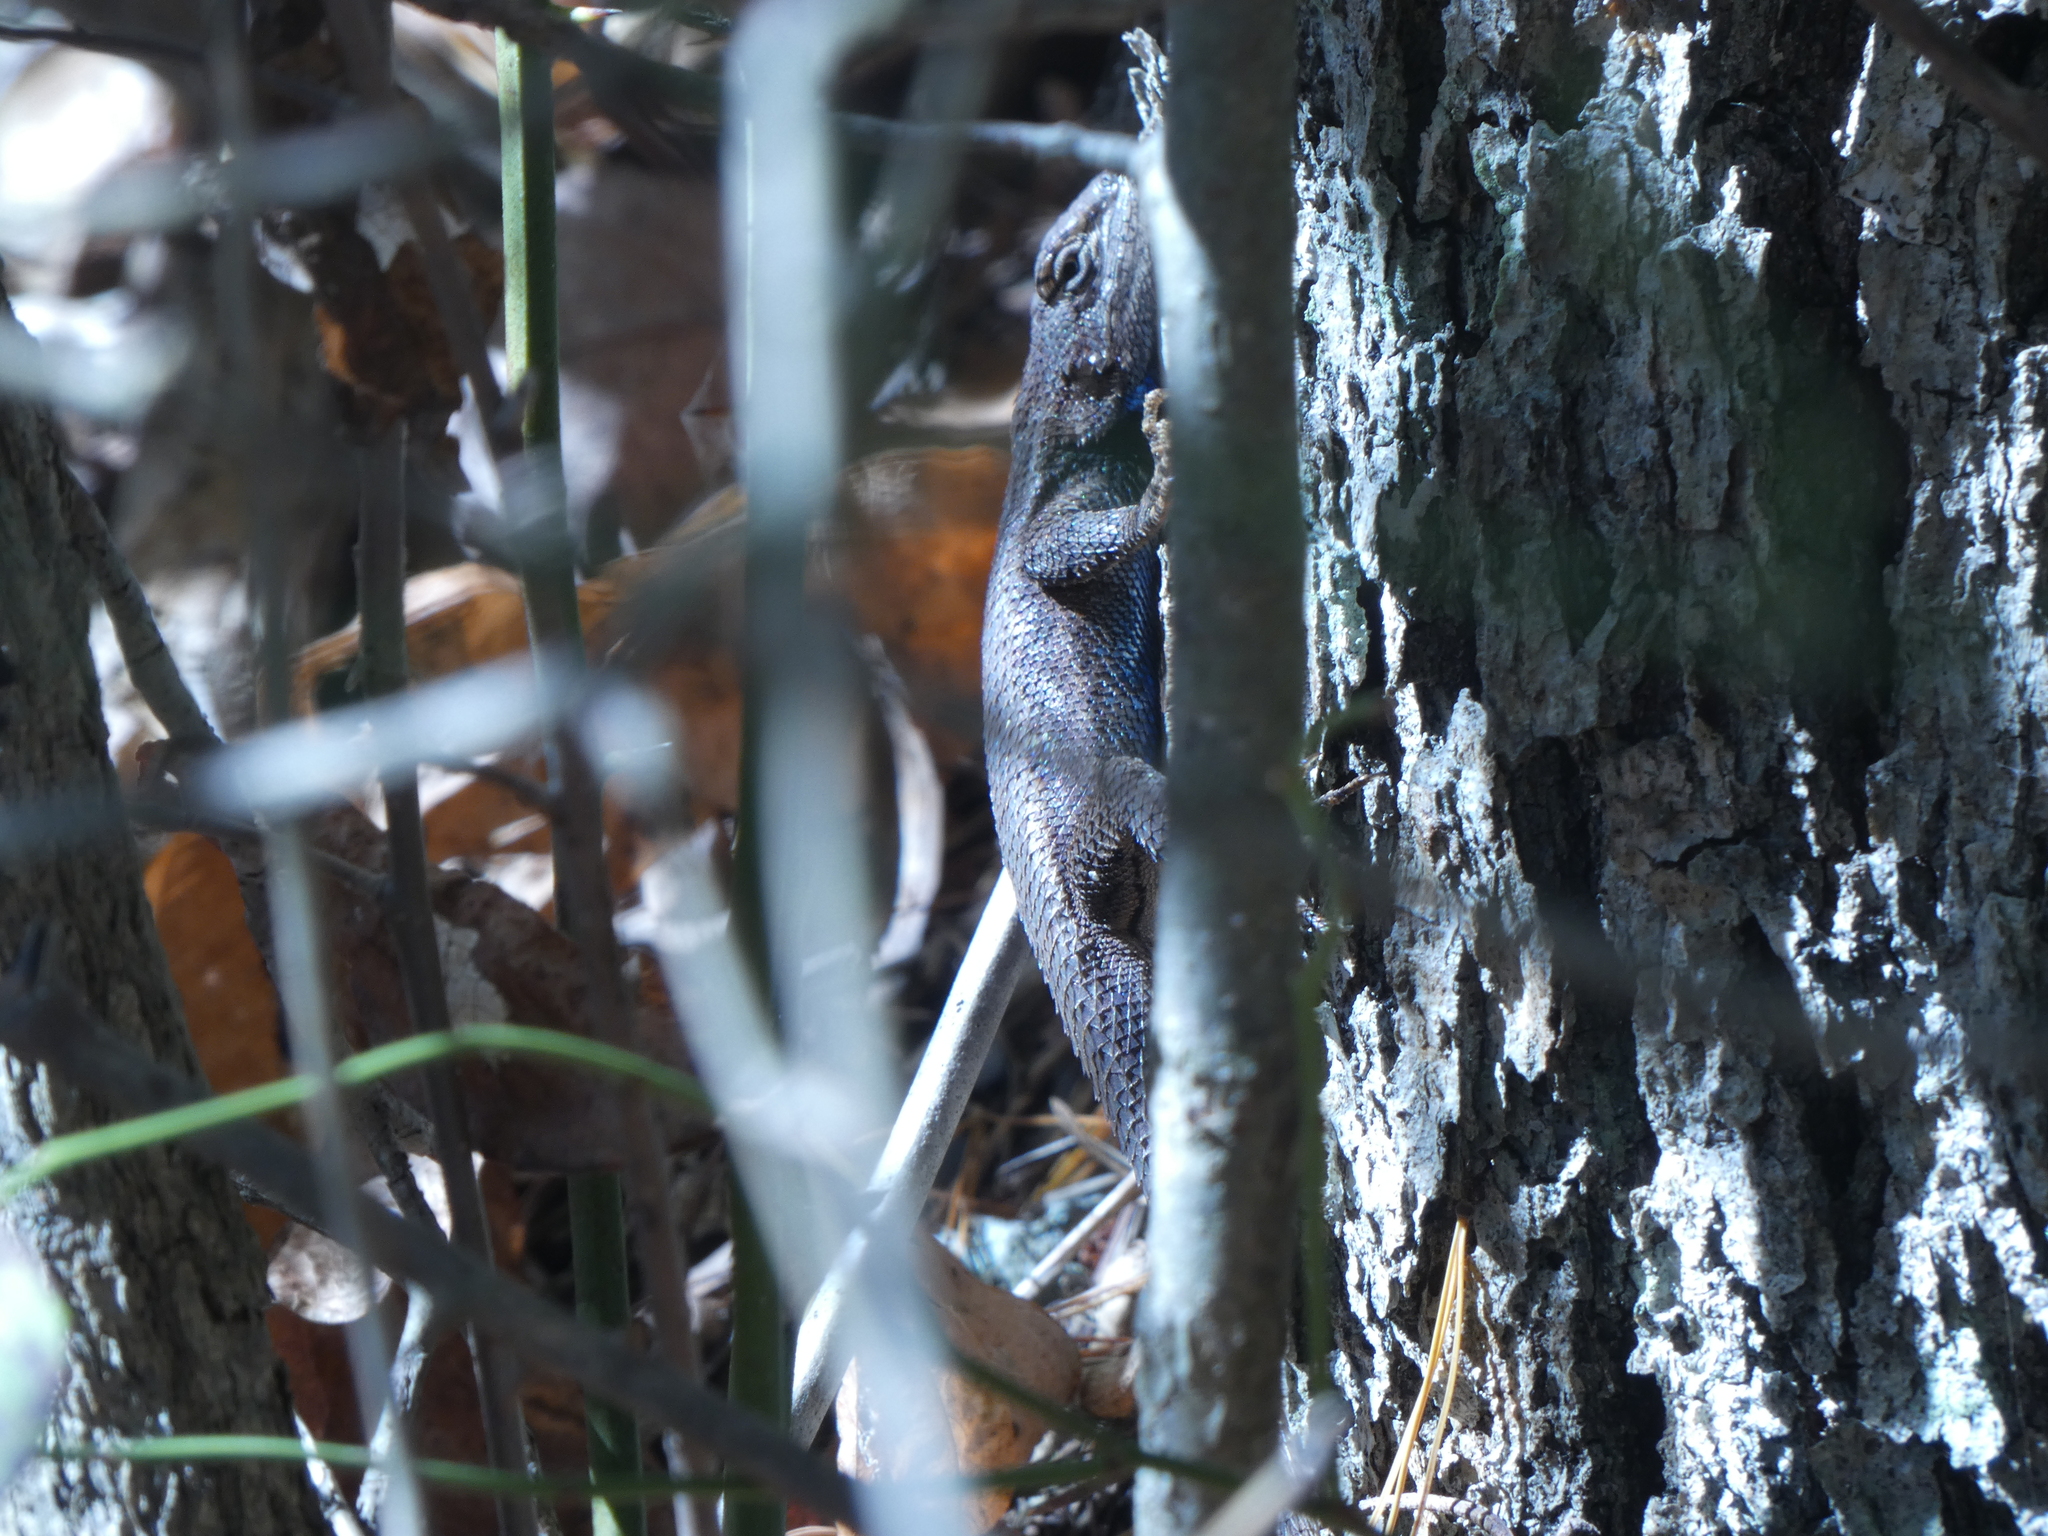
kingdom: Animalia
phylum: Chordata
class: Squamata
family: Phrynosomatidae
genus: Sceloporus
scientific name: Sceloporus undulatus
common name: Eastern fence lizard
